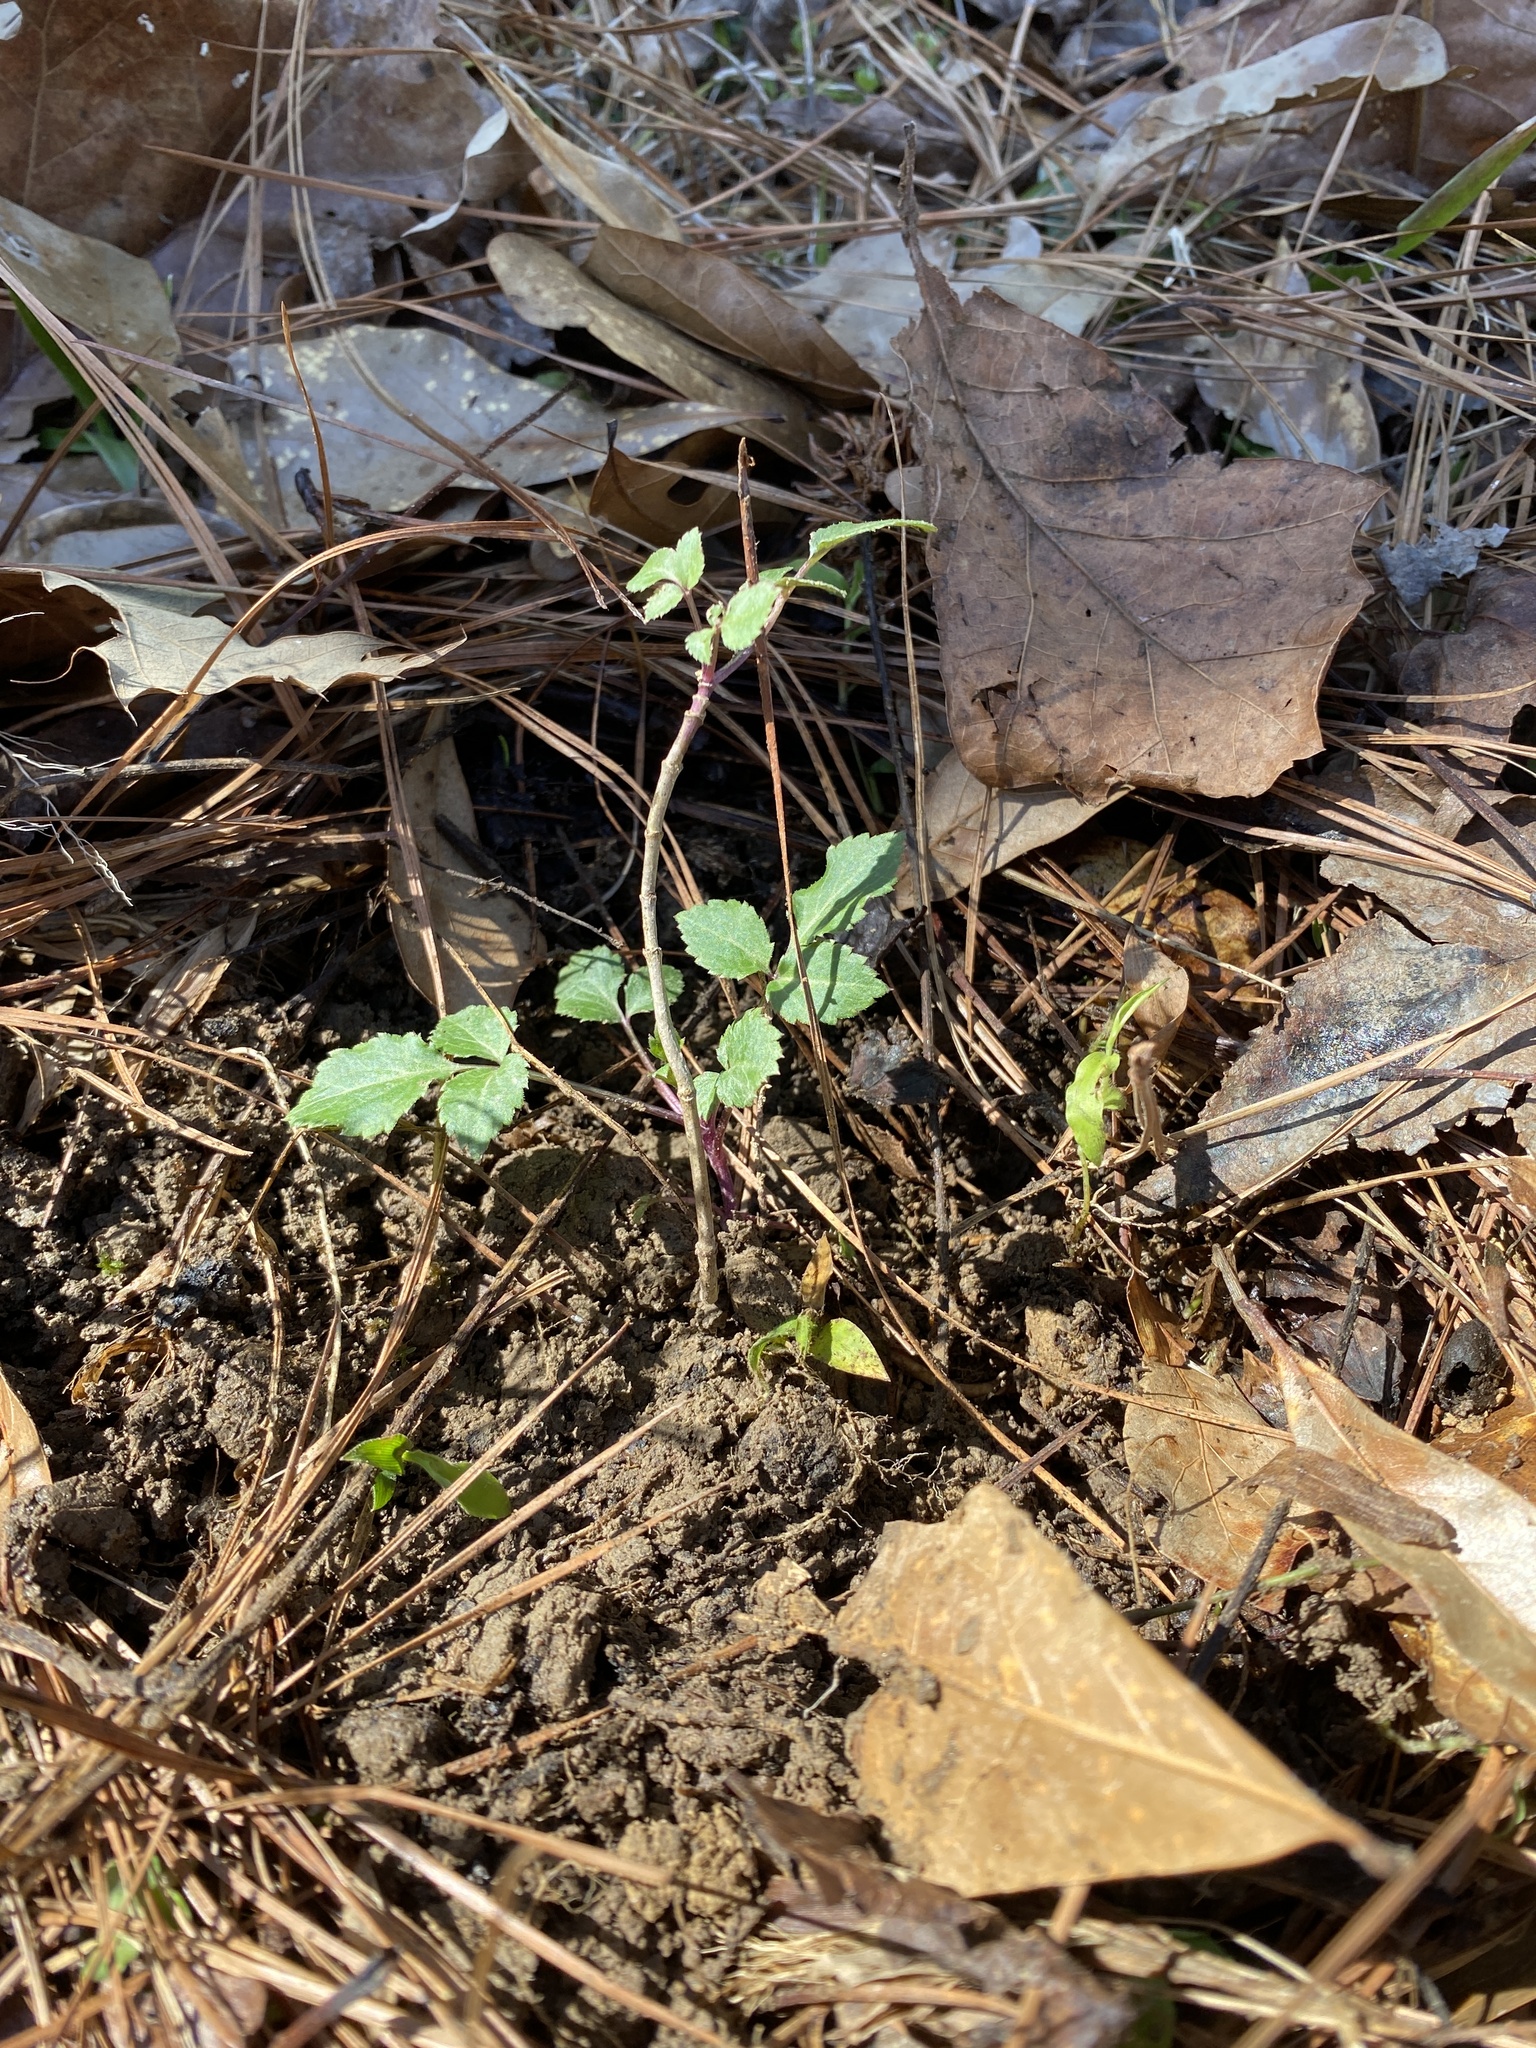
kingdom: Plantae
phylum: Tracheophyta
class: Magnoliopsida
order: Dipsacales
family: Viburnaceae
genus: Sambucus
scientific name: Sambucus canadensis
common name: American elder
